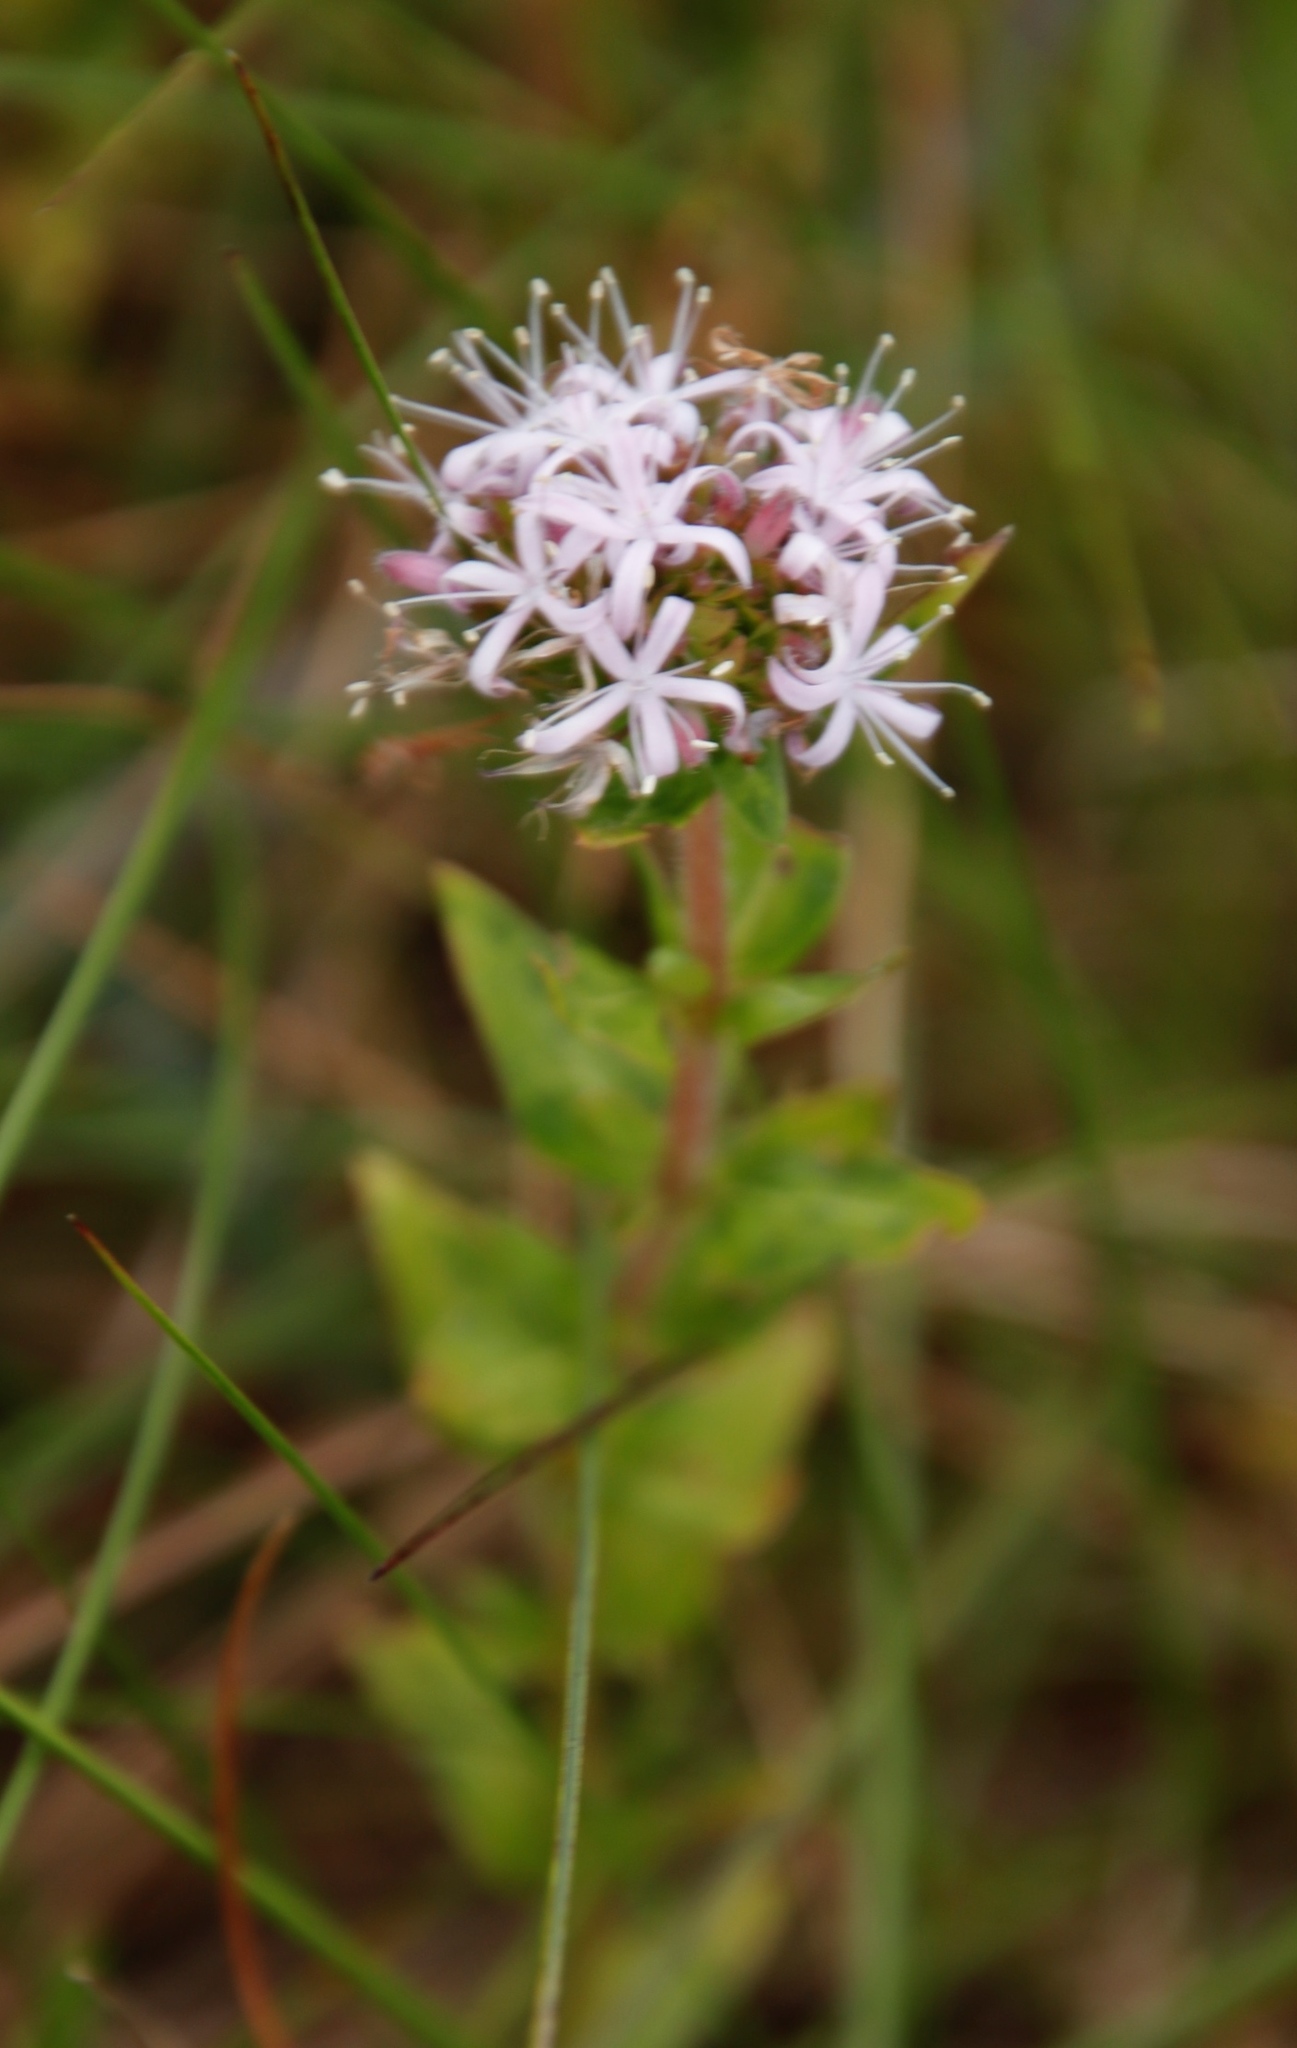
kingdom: Plantae
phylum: Tracheophyta
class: Magnoliopsida
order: Gentianales
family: Rubiaceae
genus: Otiophora
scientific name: Otiophora inyangana
